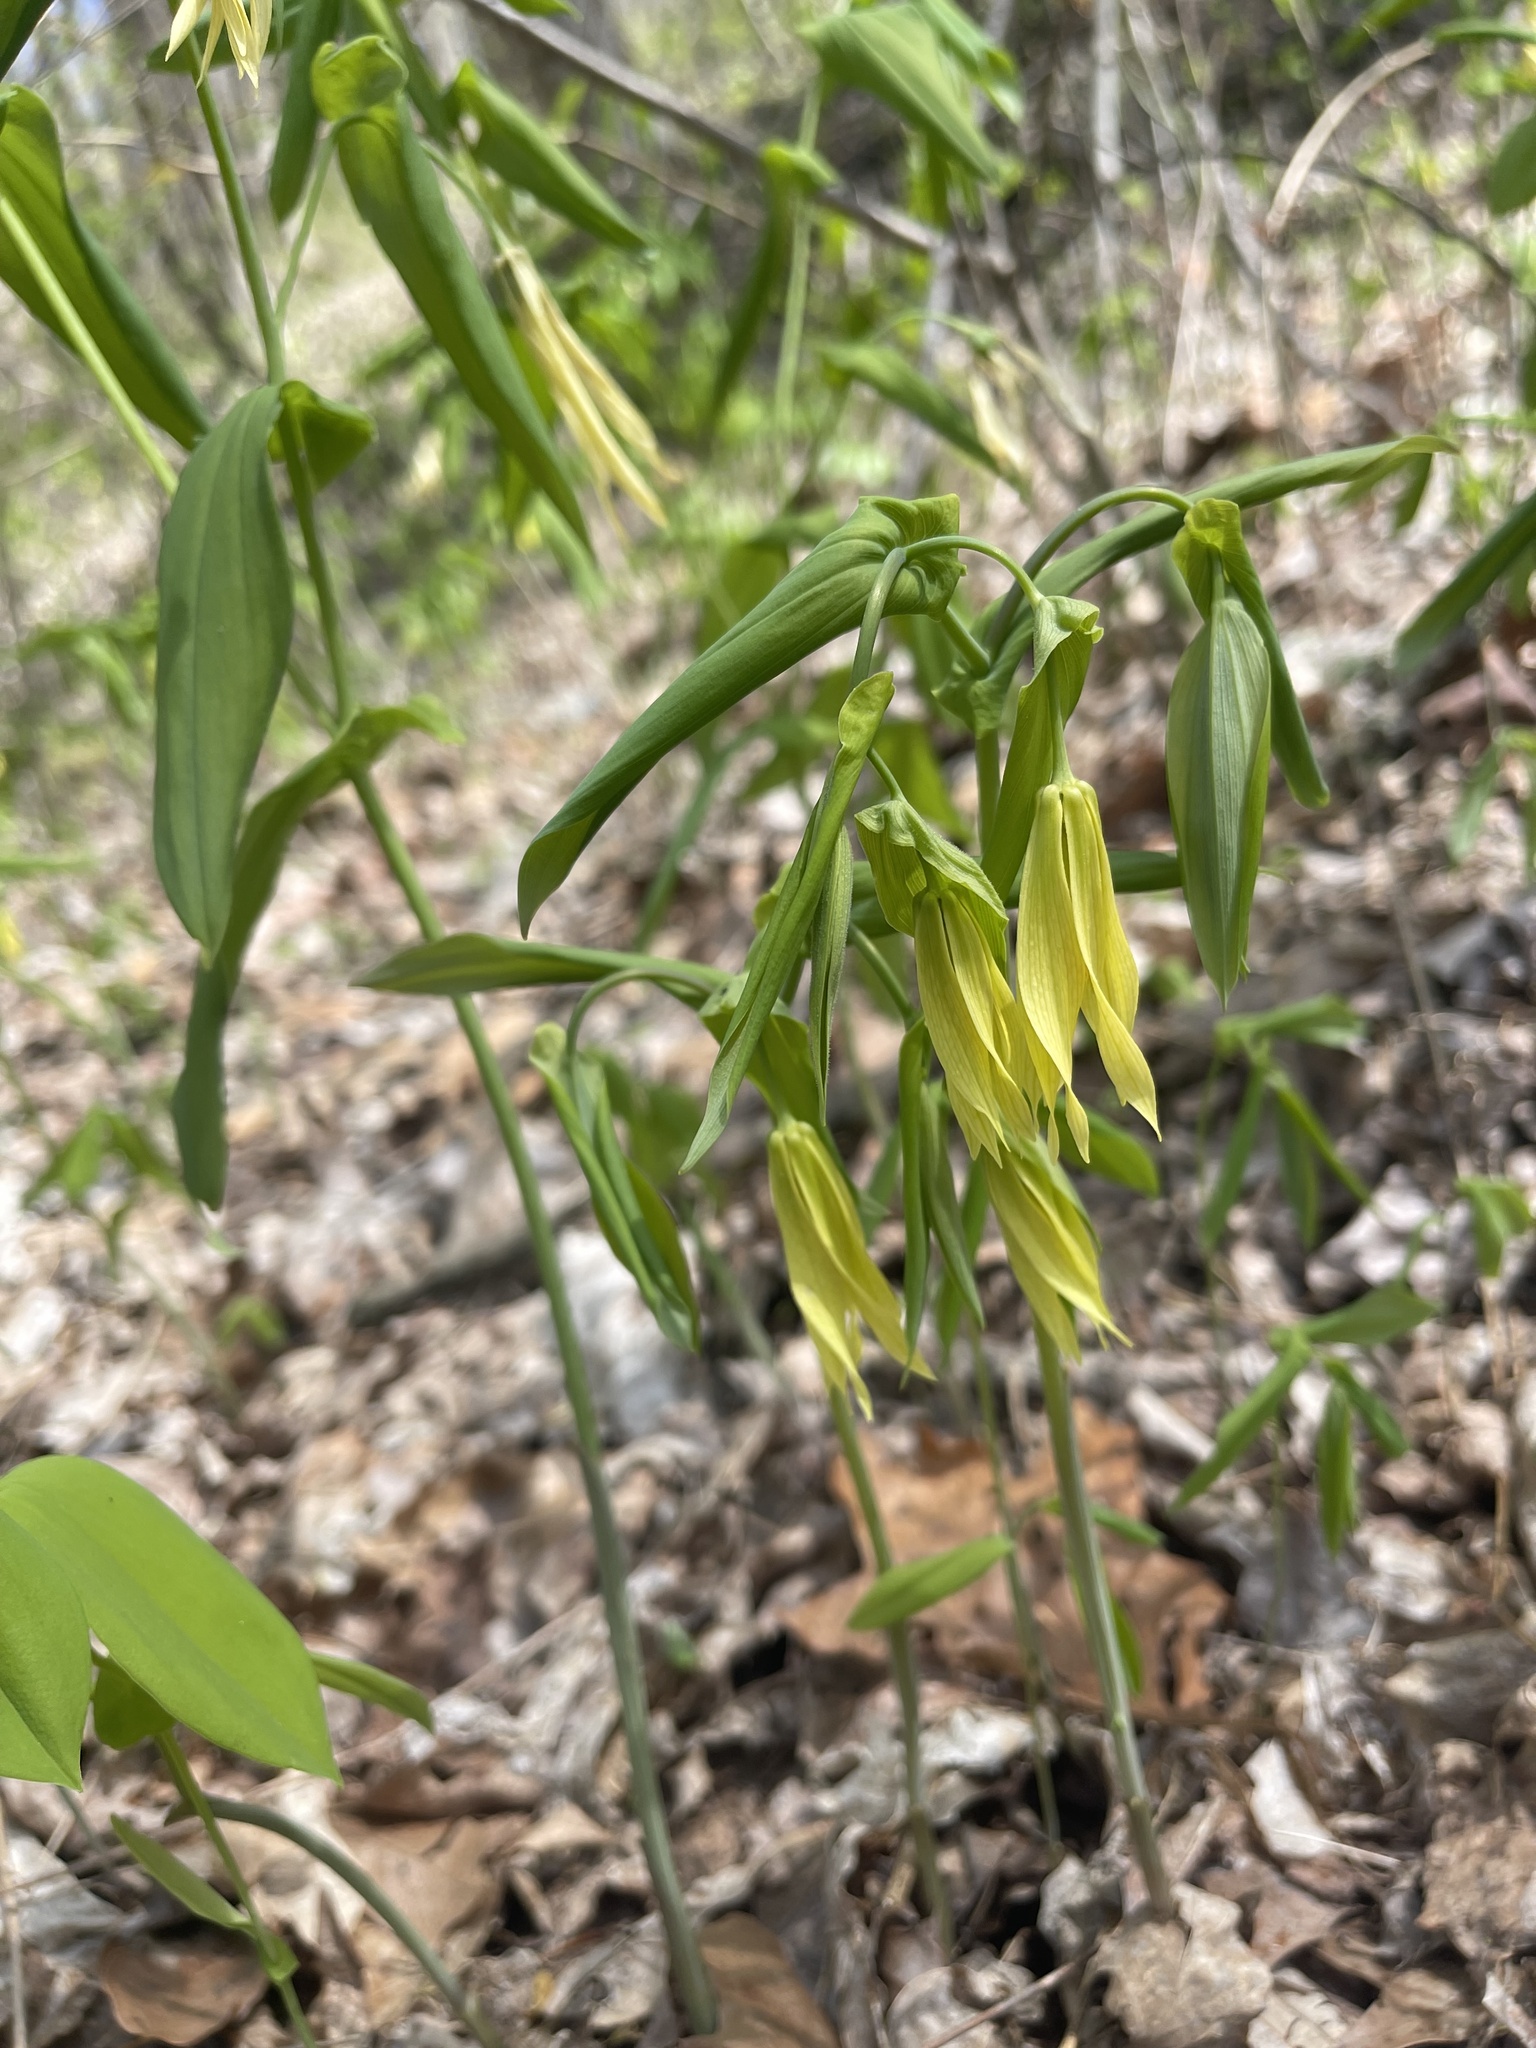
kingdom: Plantae
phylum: Tracheophyta
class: Liliopsida
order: Liliales
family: Colchicaceae
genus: Uvularia
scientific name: Uvularia grandiflora
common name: Bellwort
